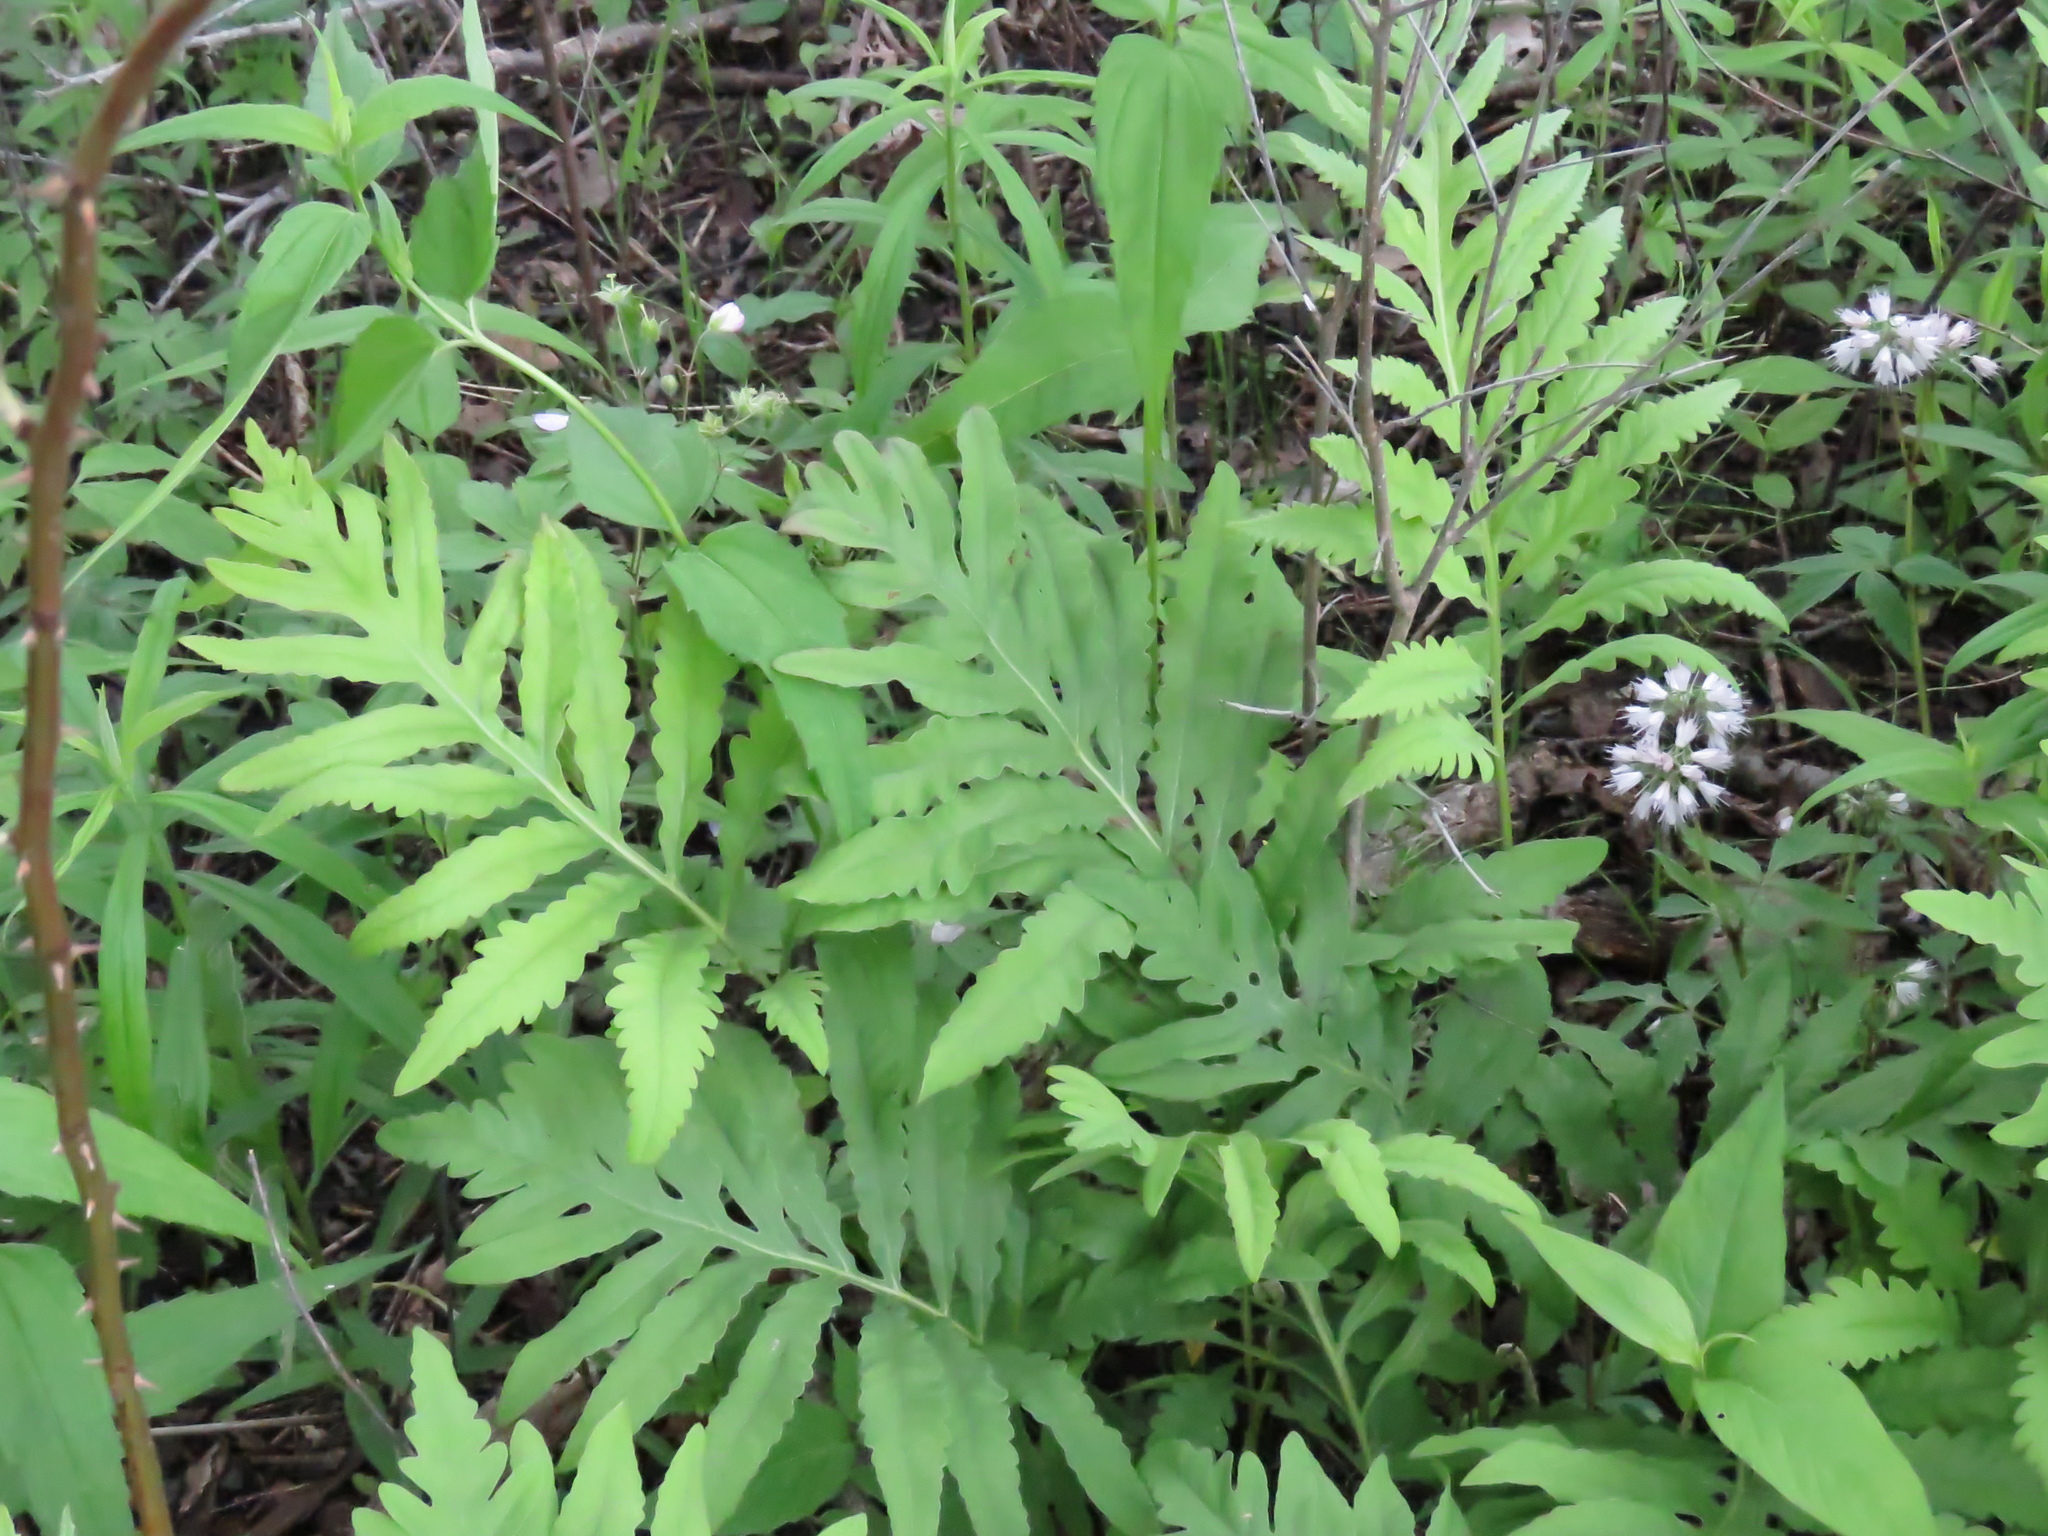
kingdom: Plantae
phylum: Tracheophyta
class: Polypodiopsida
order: Polypodiales
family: Onocleaceae
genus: Onoclea
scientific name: Onoclea sensibilis
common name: Sensitive fern
